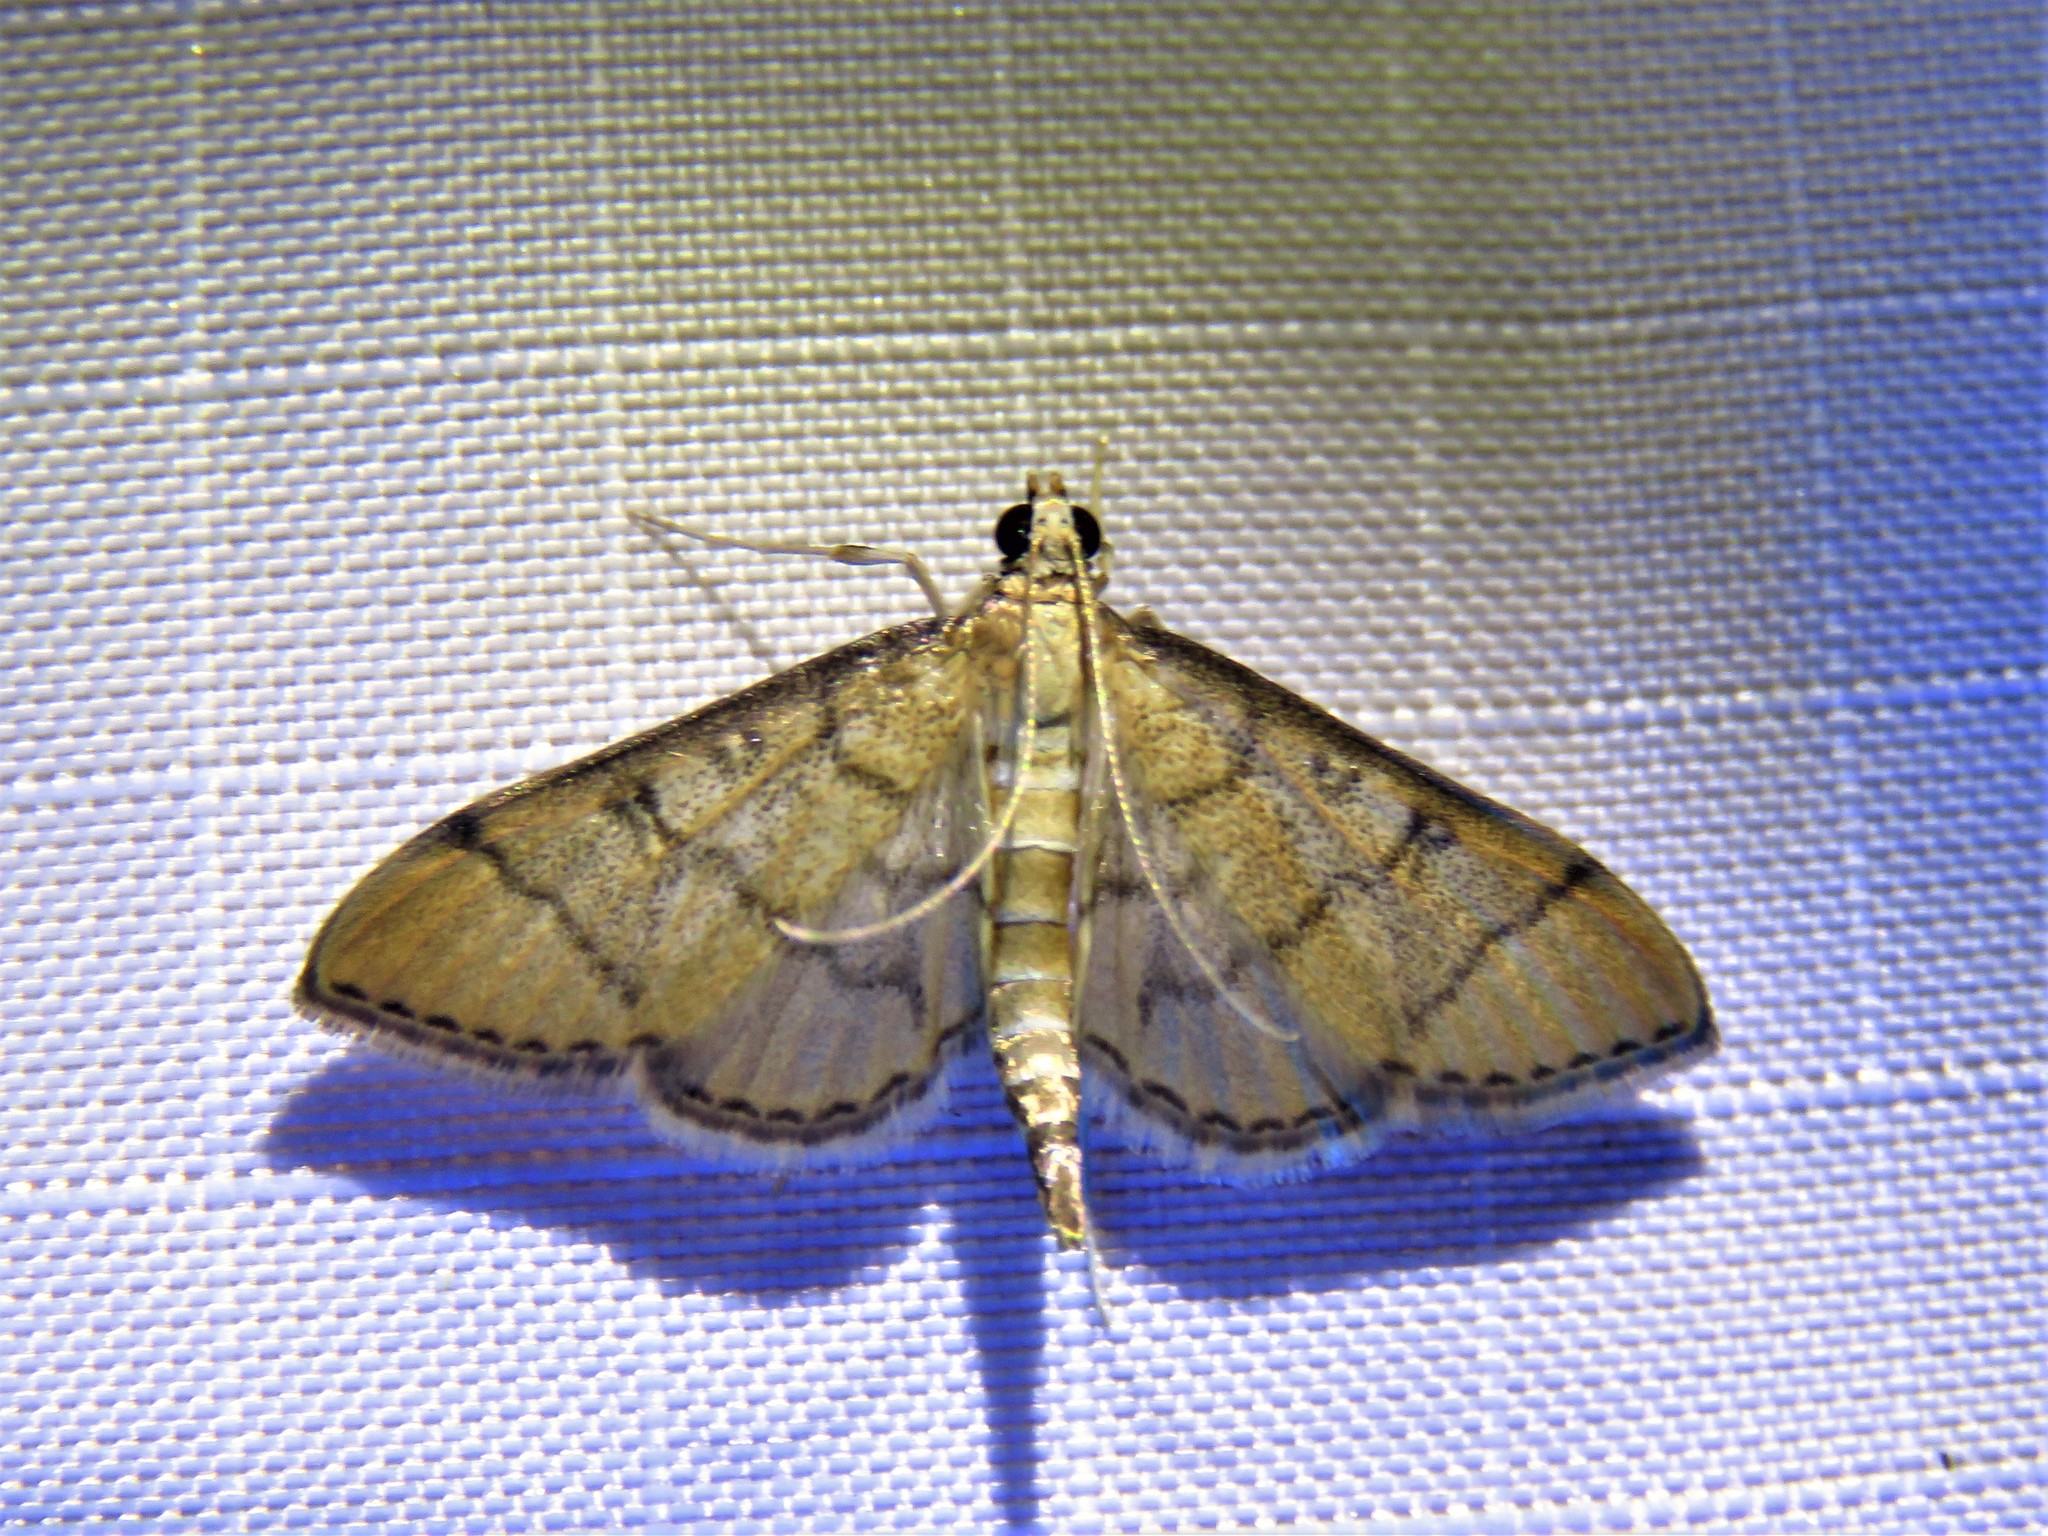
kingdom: Animalia
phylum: Arthropoda
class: Insecta
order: Lepidoptera
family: Crambidae
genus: Lamprosema
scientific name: Lamprosema Blepharomastix ranalis
